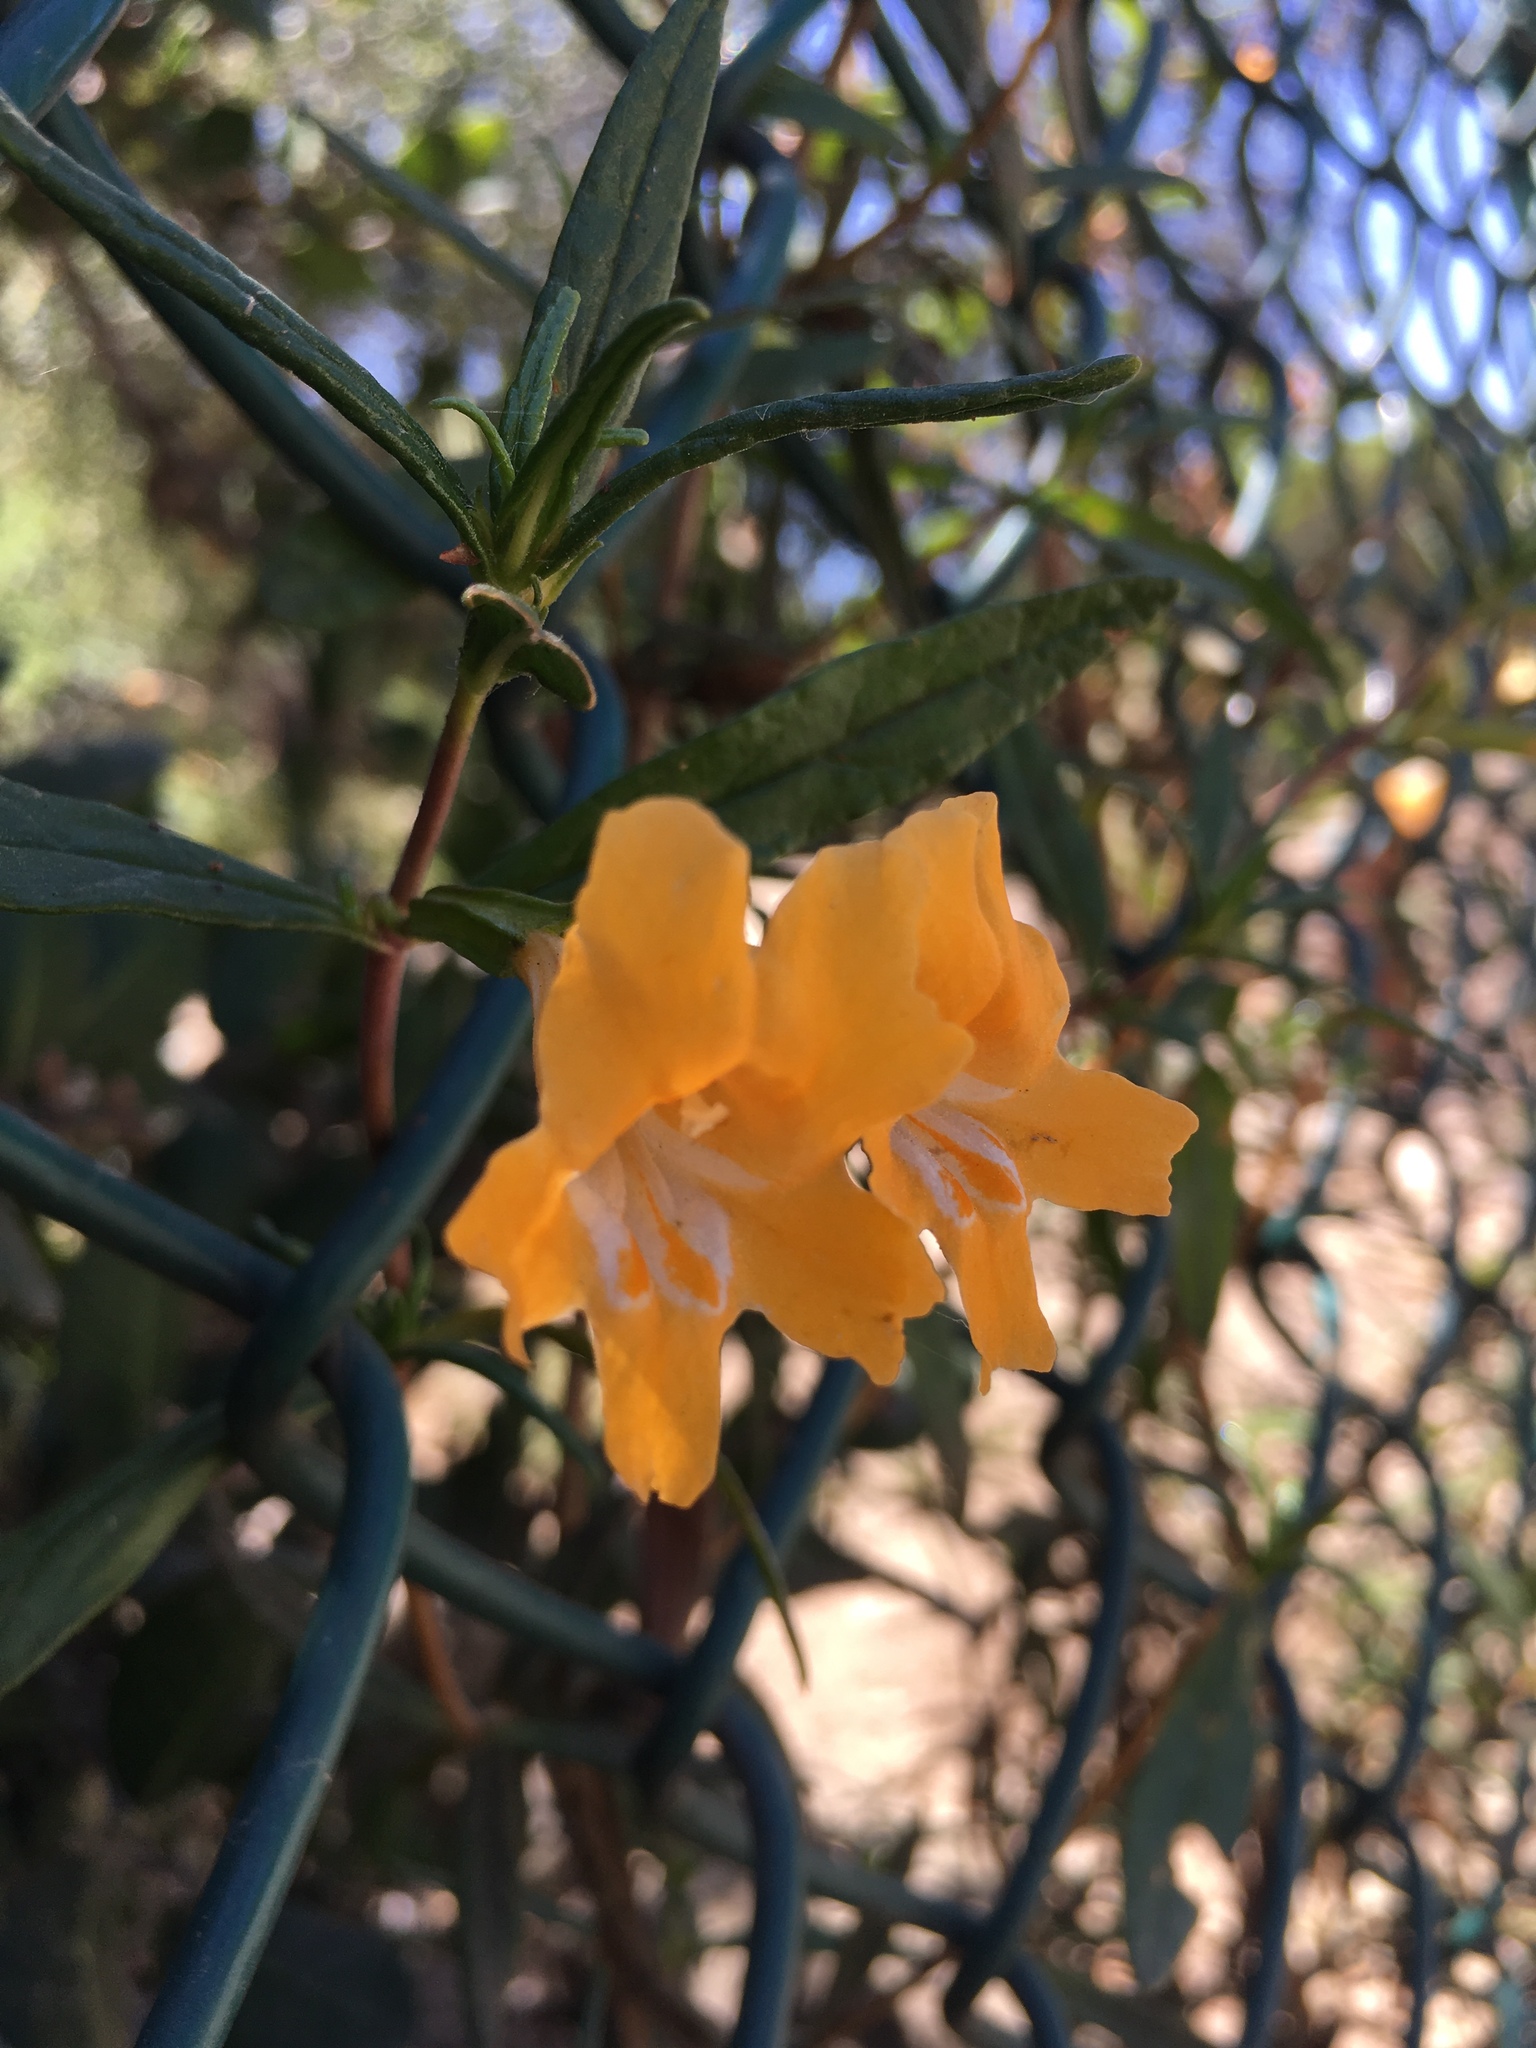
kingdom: Plantae
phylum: Tracheophyta
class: Magnoliopsida
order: Lamiales
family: Phrymaceae
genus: Diplacus
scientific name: Diplacus australis
